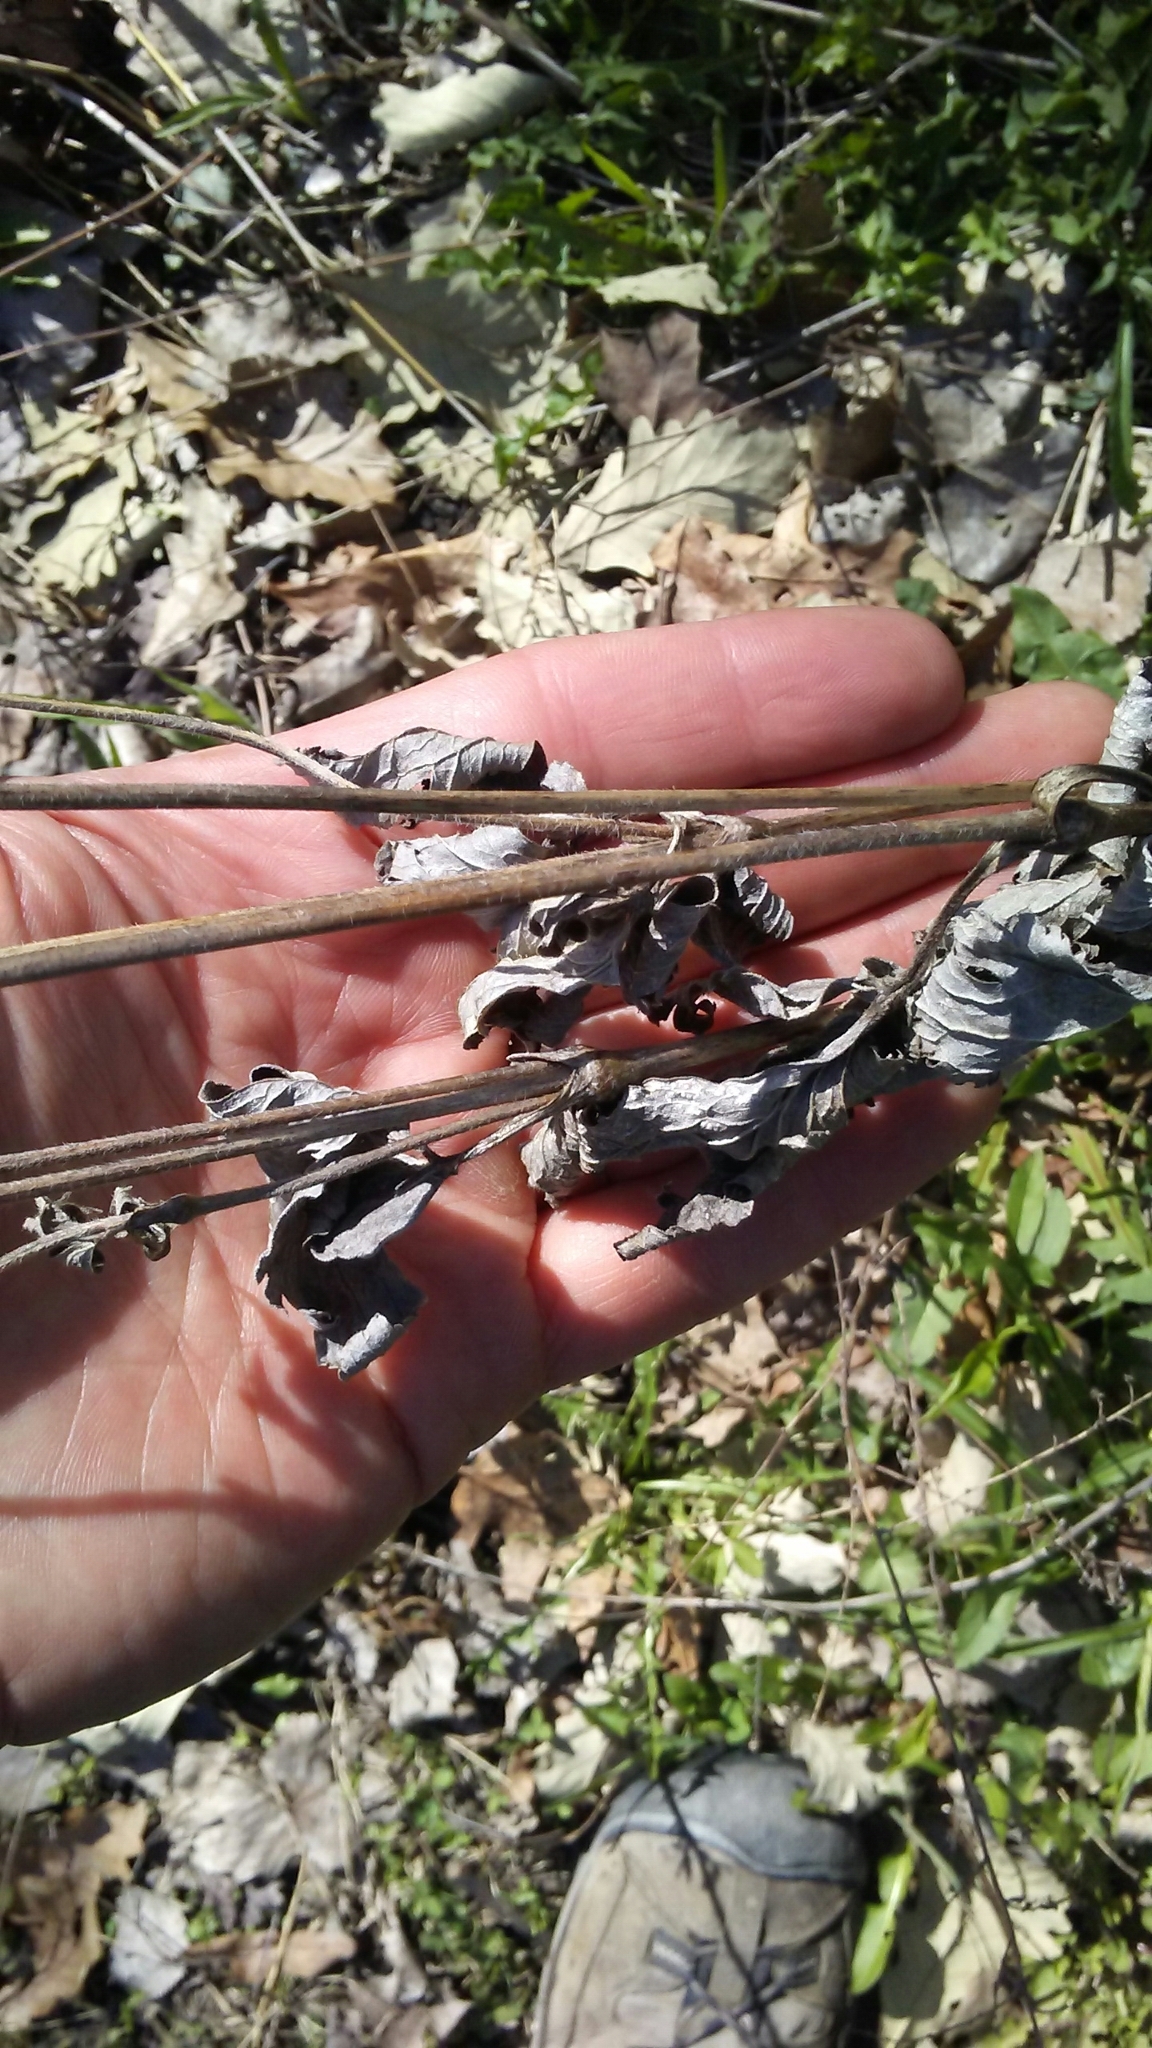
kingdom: Plantae
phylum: Tracheophyta
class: Magnoliopsida
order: Ranunculales
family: Ranunculaceae
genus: Anemone
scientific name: Anemone virginiana
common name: Tall anemone
